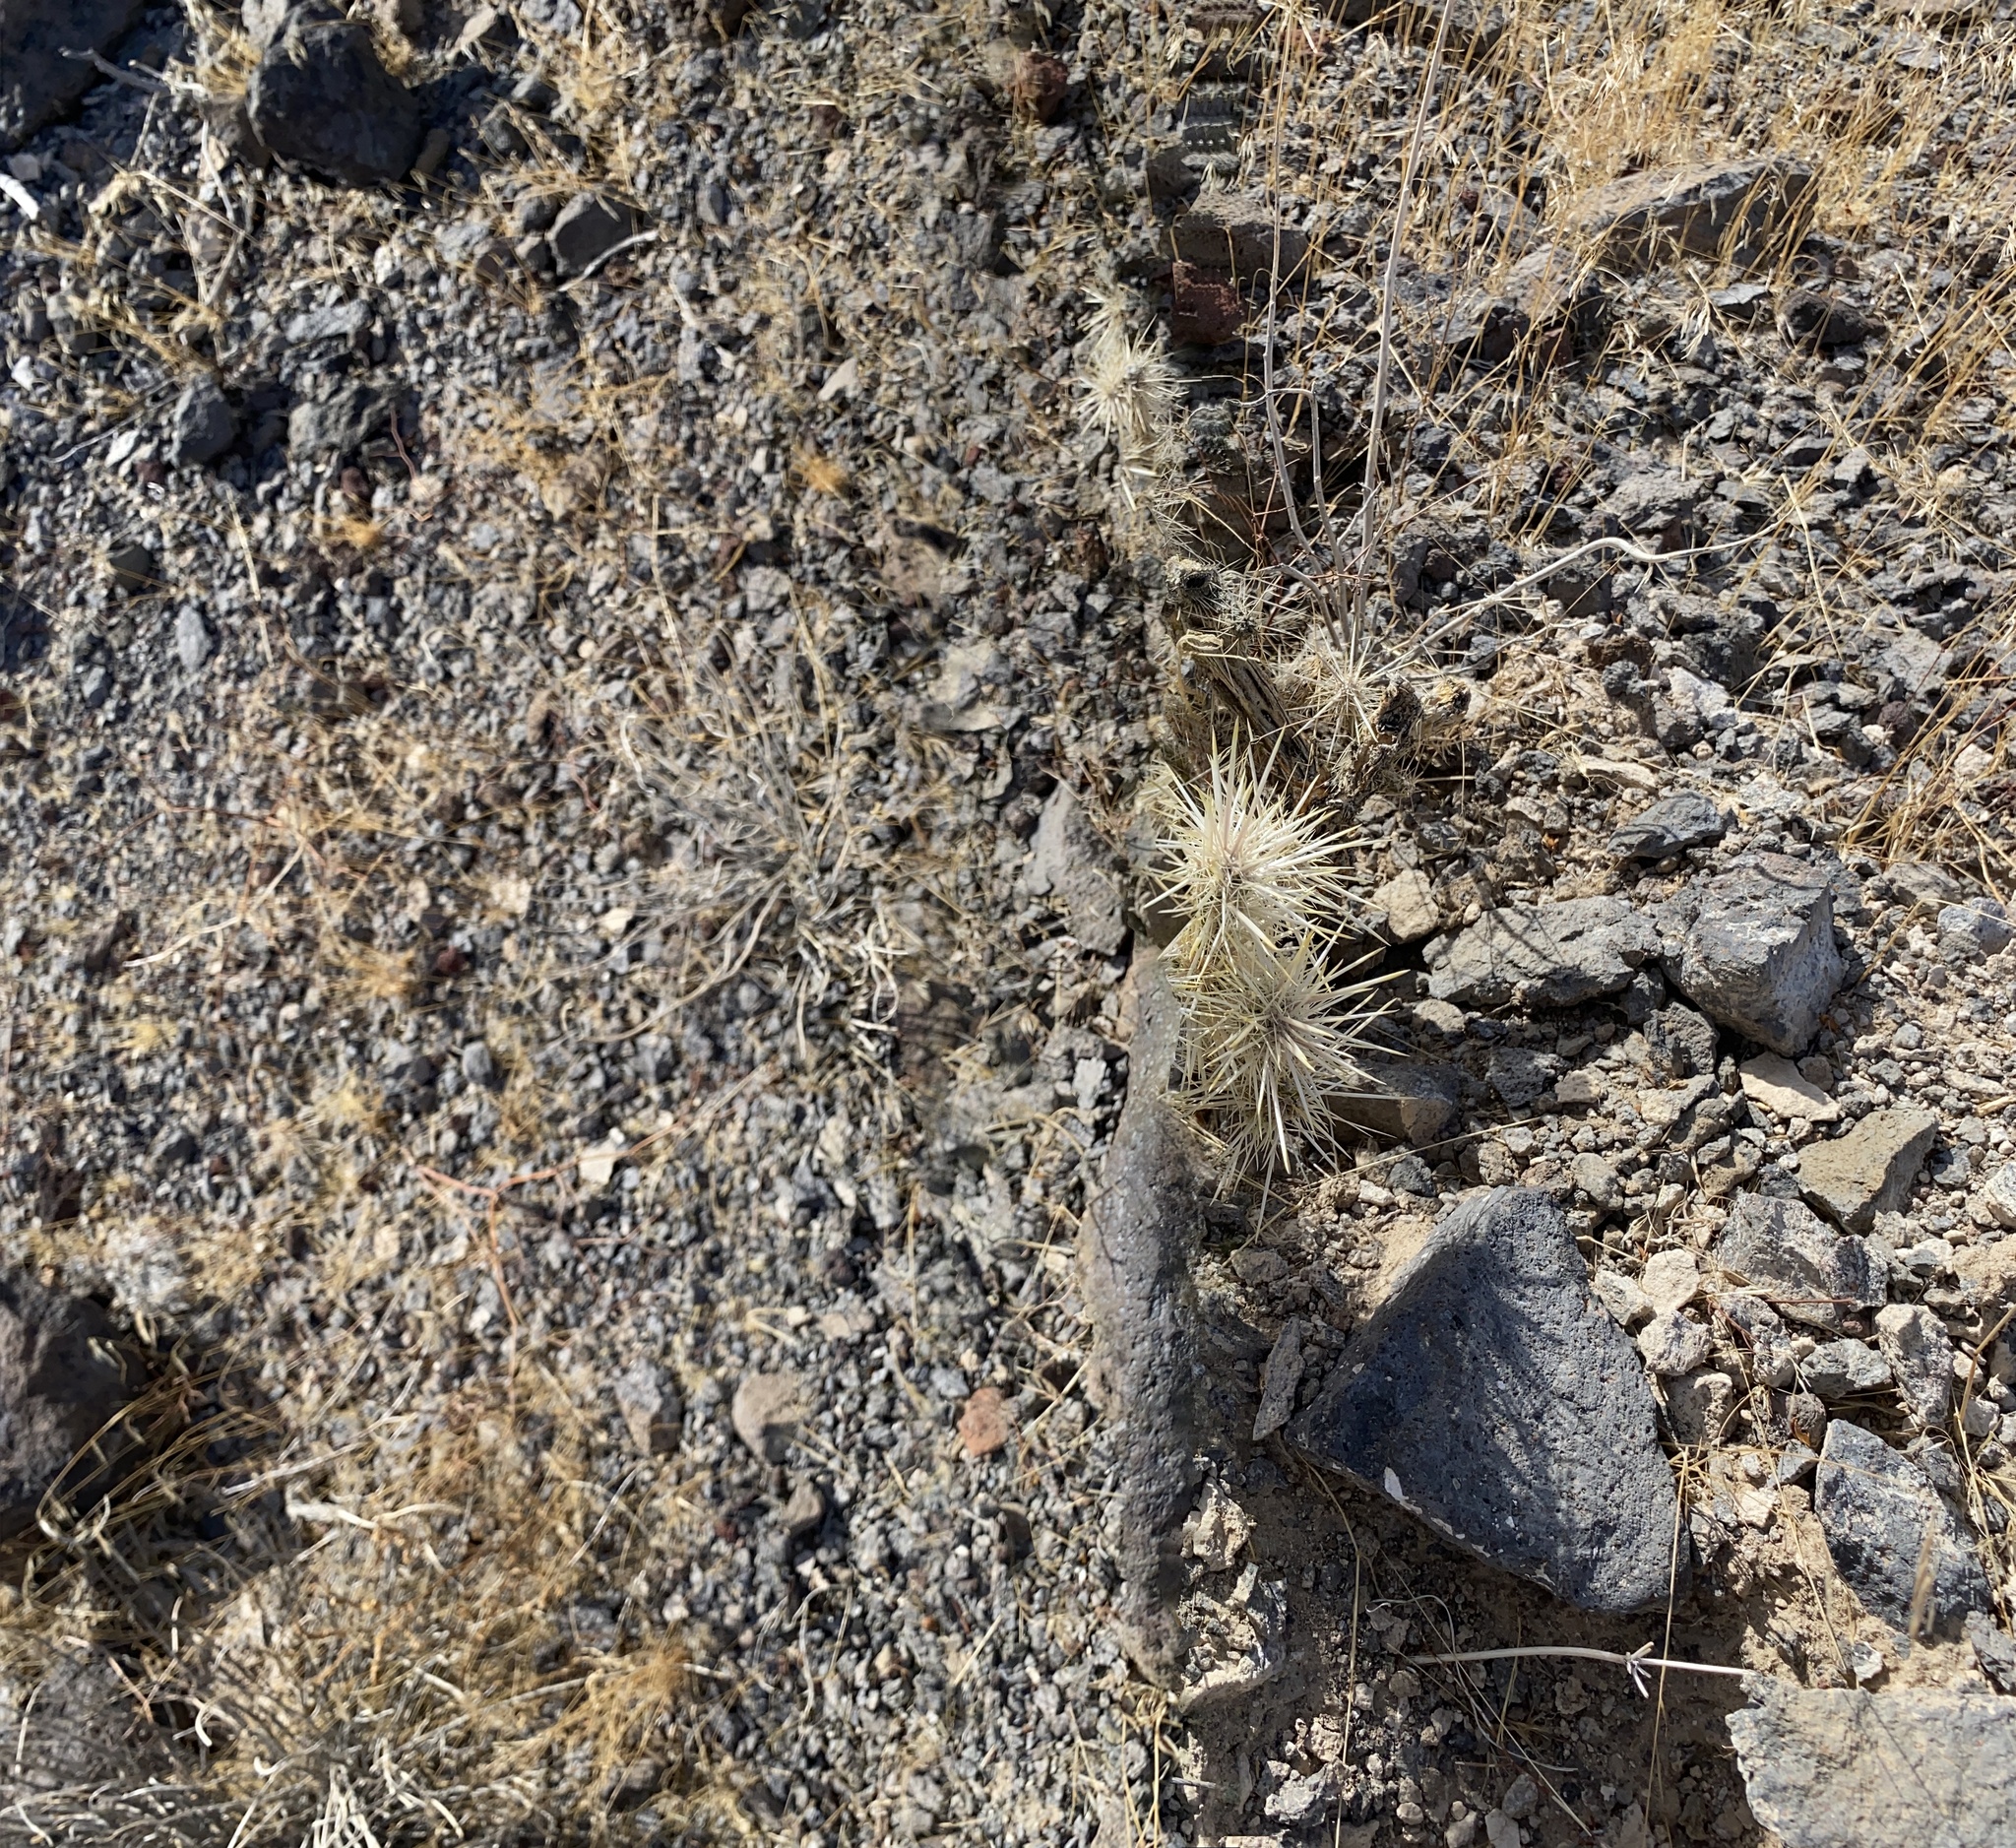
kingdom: Plantae
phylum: Tracheophyta
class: Magnoliopsida
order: Caryophyllales
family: Cactaceae
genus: Cylindropuntia
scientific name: Cylindropuntia echinocarpa
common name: Ground cholla
